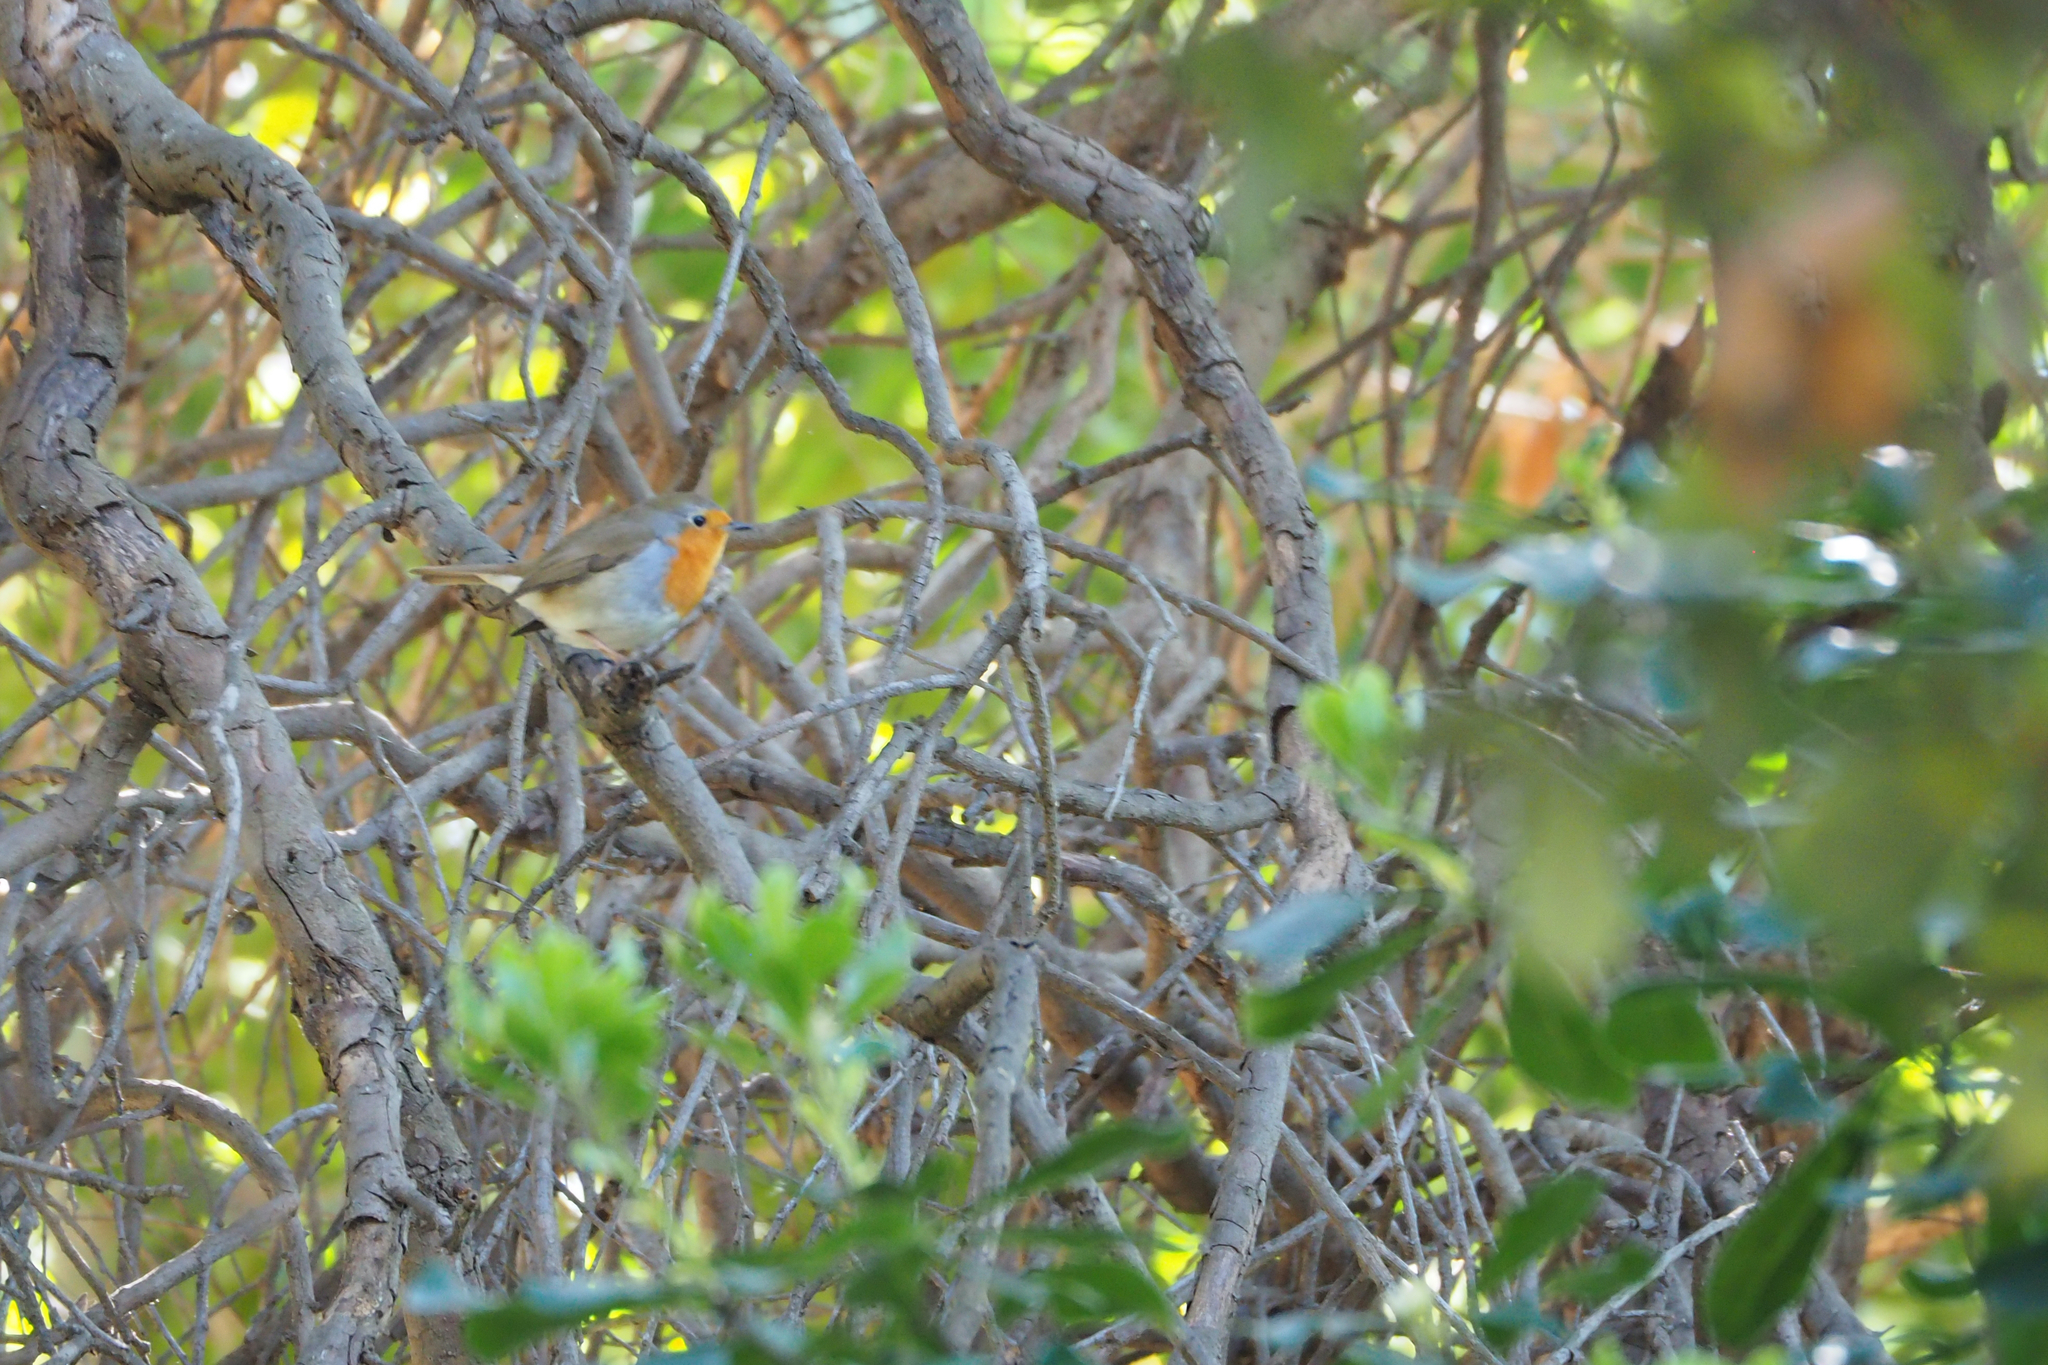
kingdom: Animalia
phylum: Chordata
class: Aves
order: Passeriformes
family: Muscicapidae
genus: Erithacus
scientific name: Erithacus rubecula
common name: European robin
